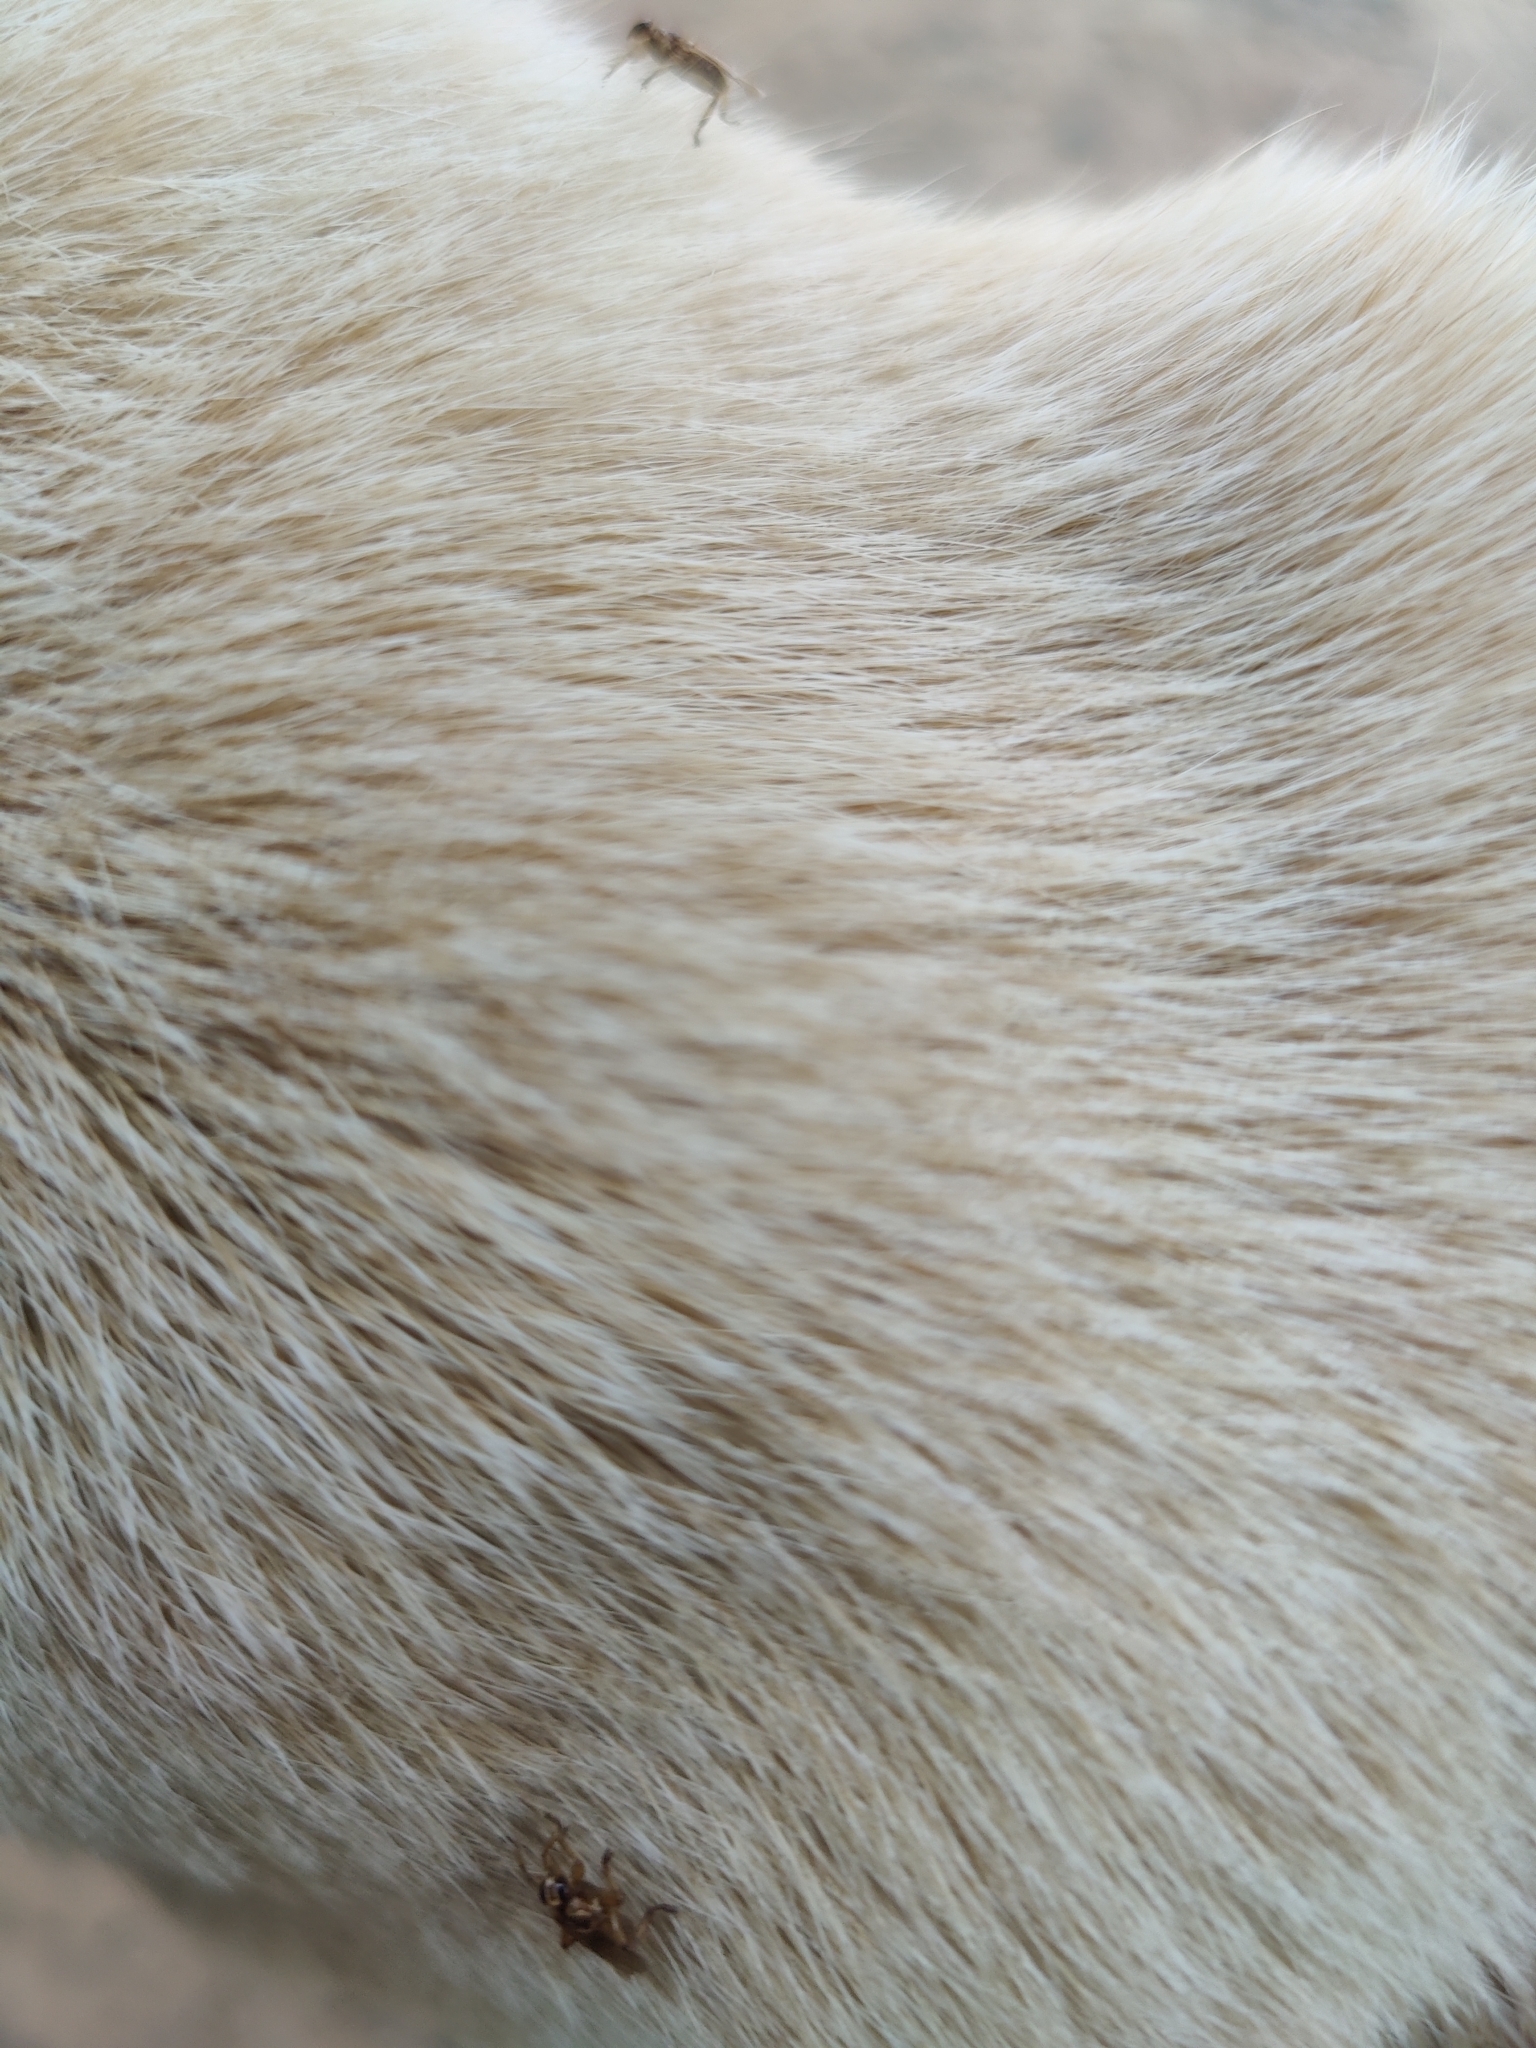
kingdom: Animalia
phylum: Arthropoda
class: Insecta
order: Diptera
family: Hippoboscidae
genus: Hippobosca
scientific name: Hippobosca longipennis
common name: Louse fly
